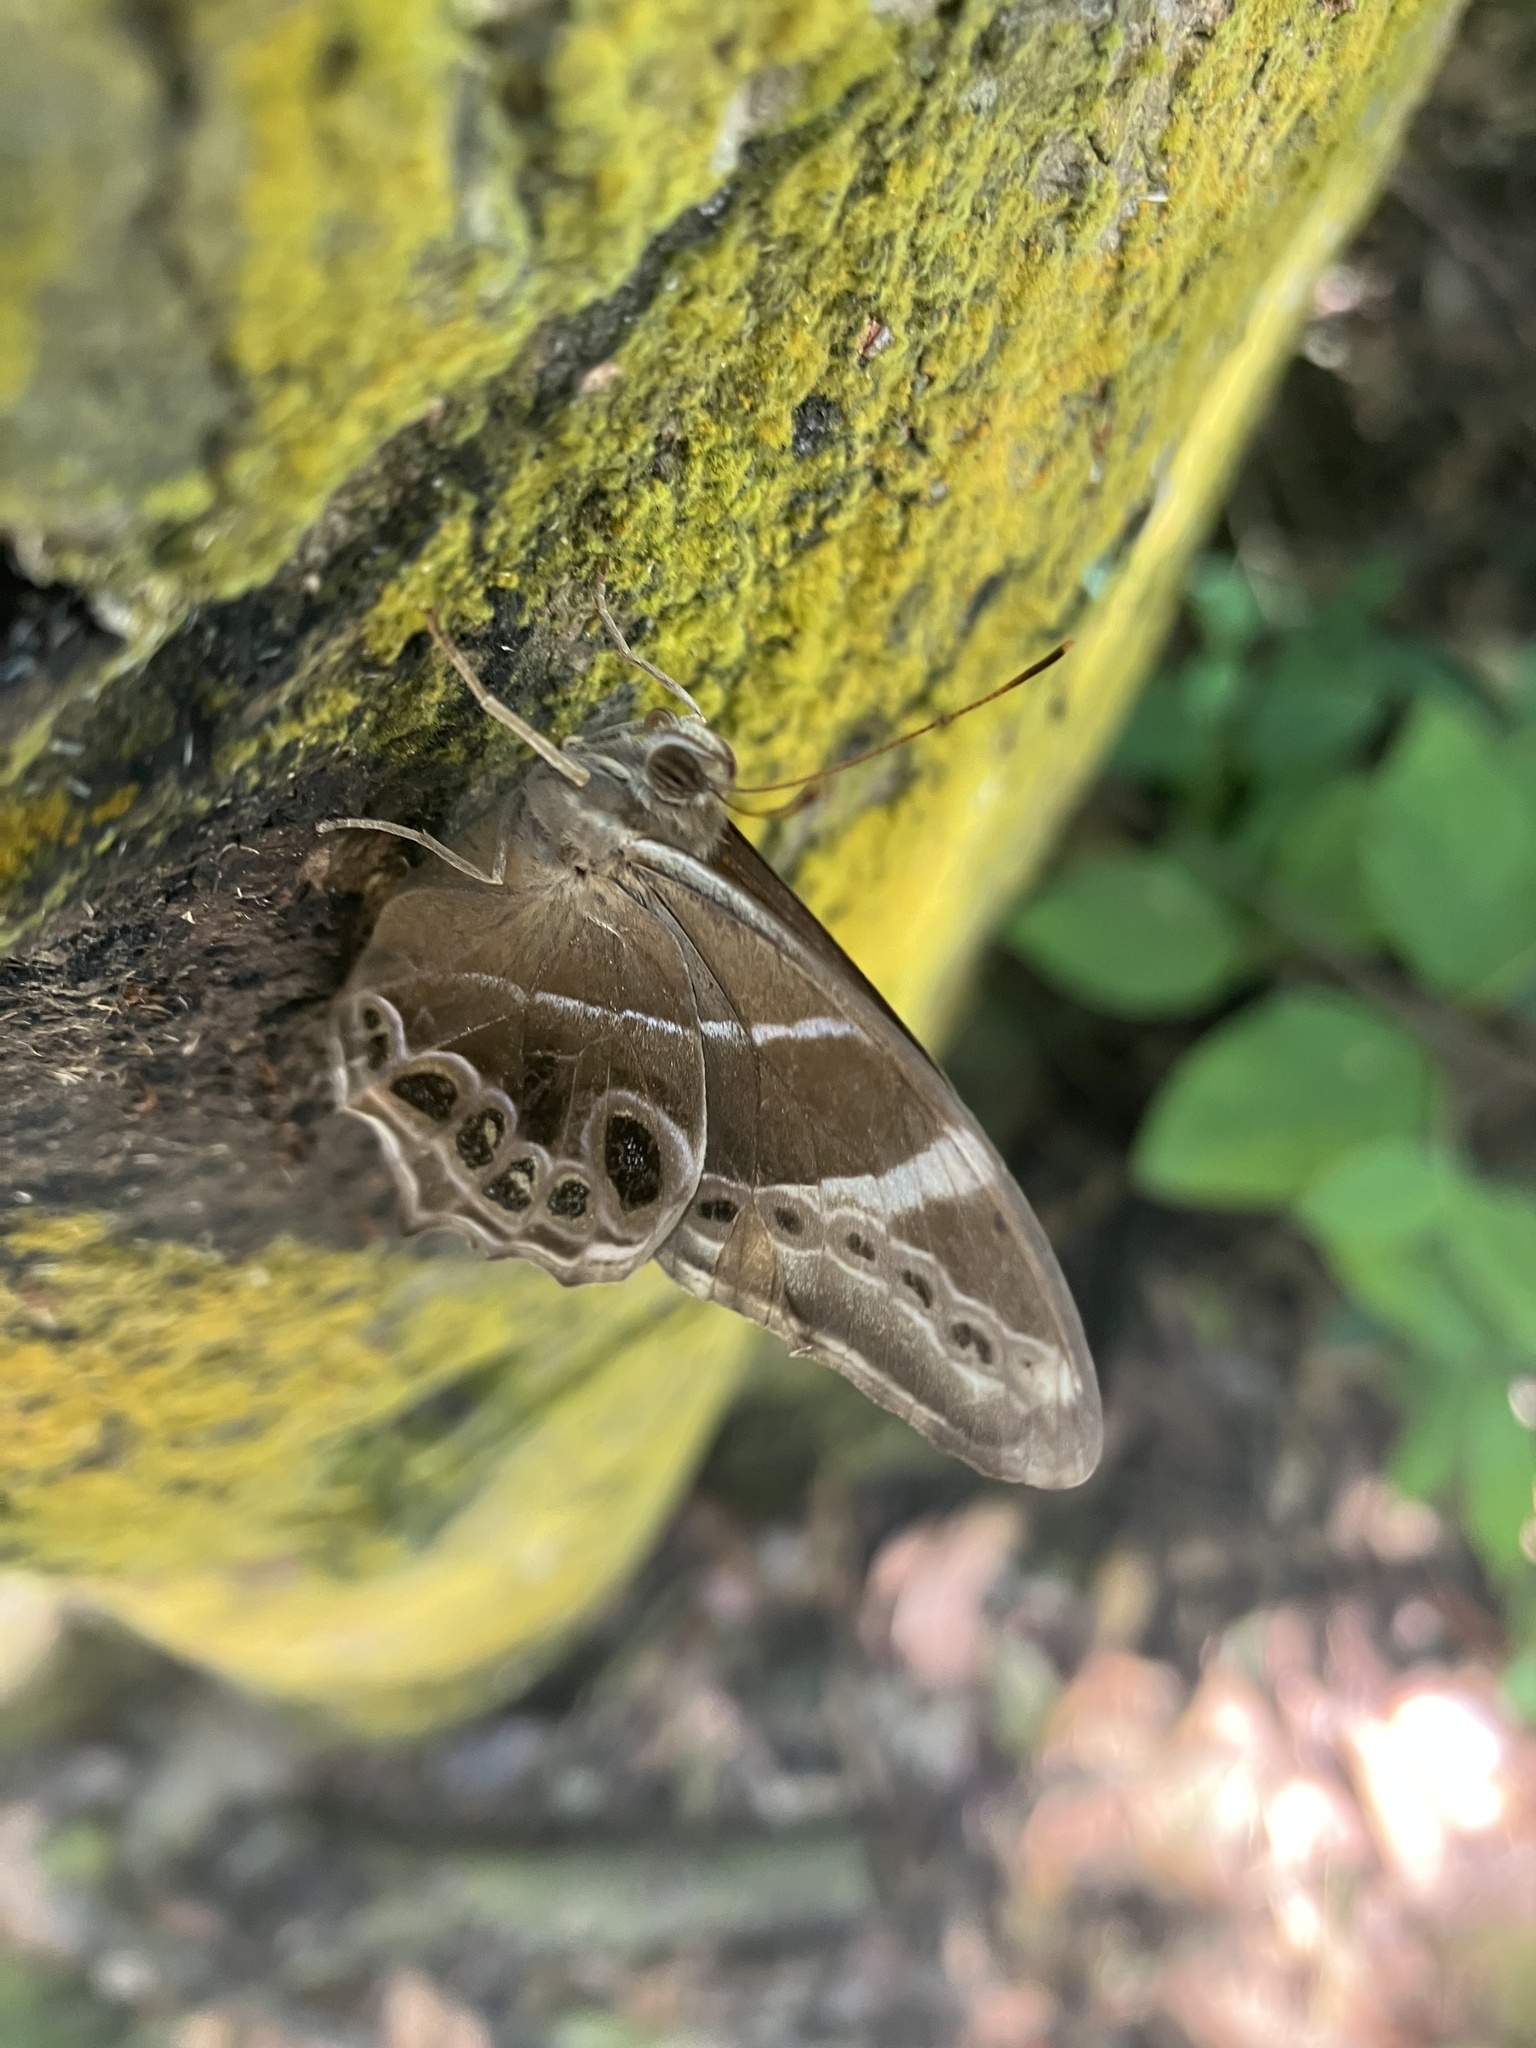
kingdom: Animalia
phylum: Arthropoda
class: Insecta
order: Lepidoptera
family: Nymphalidae
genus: Lethe
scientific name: Lethe europa
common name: Bamboo treebrown
